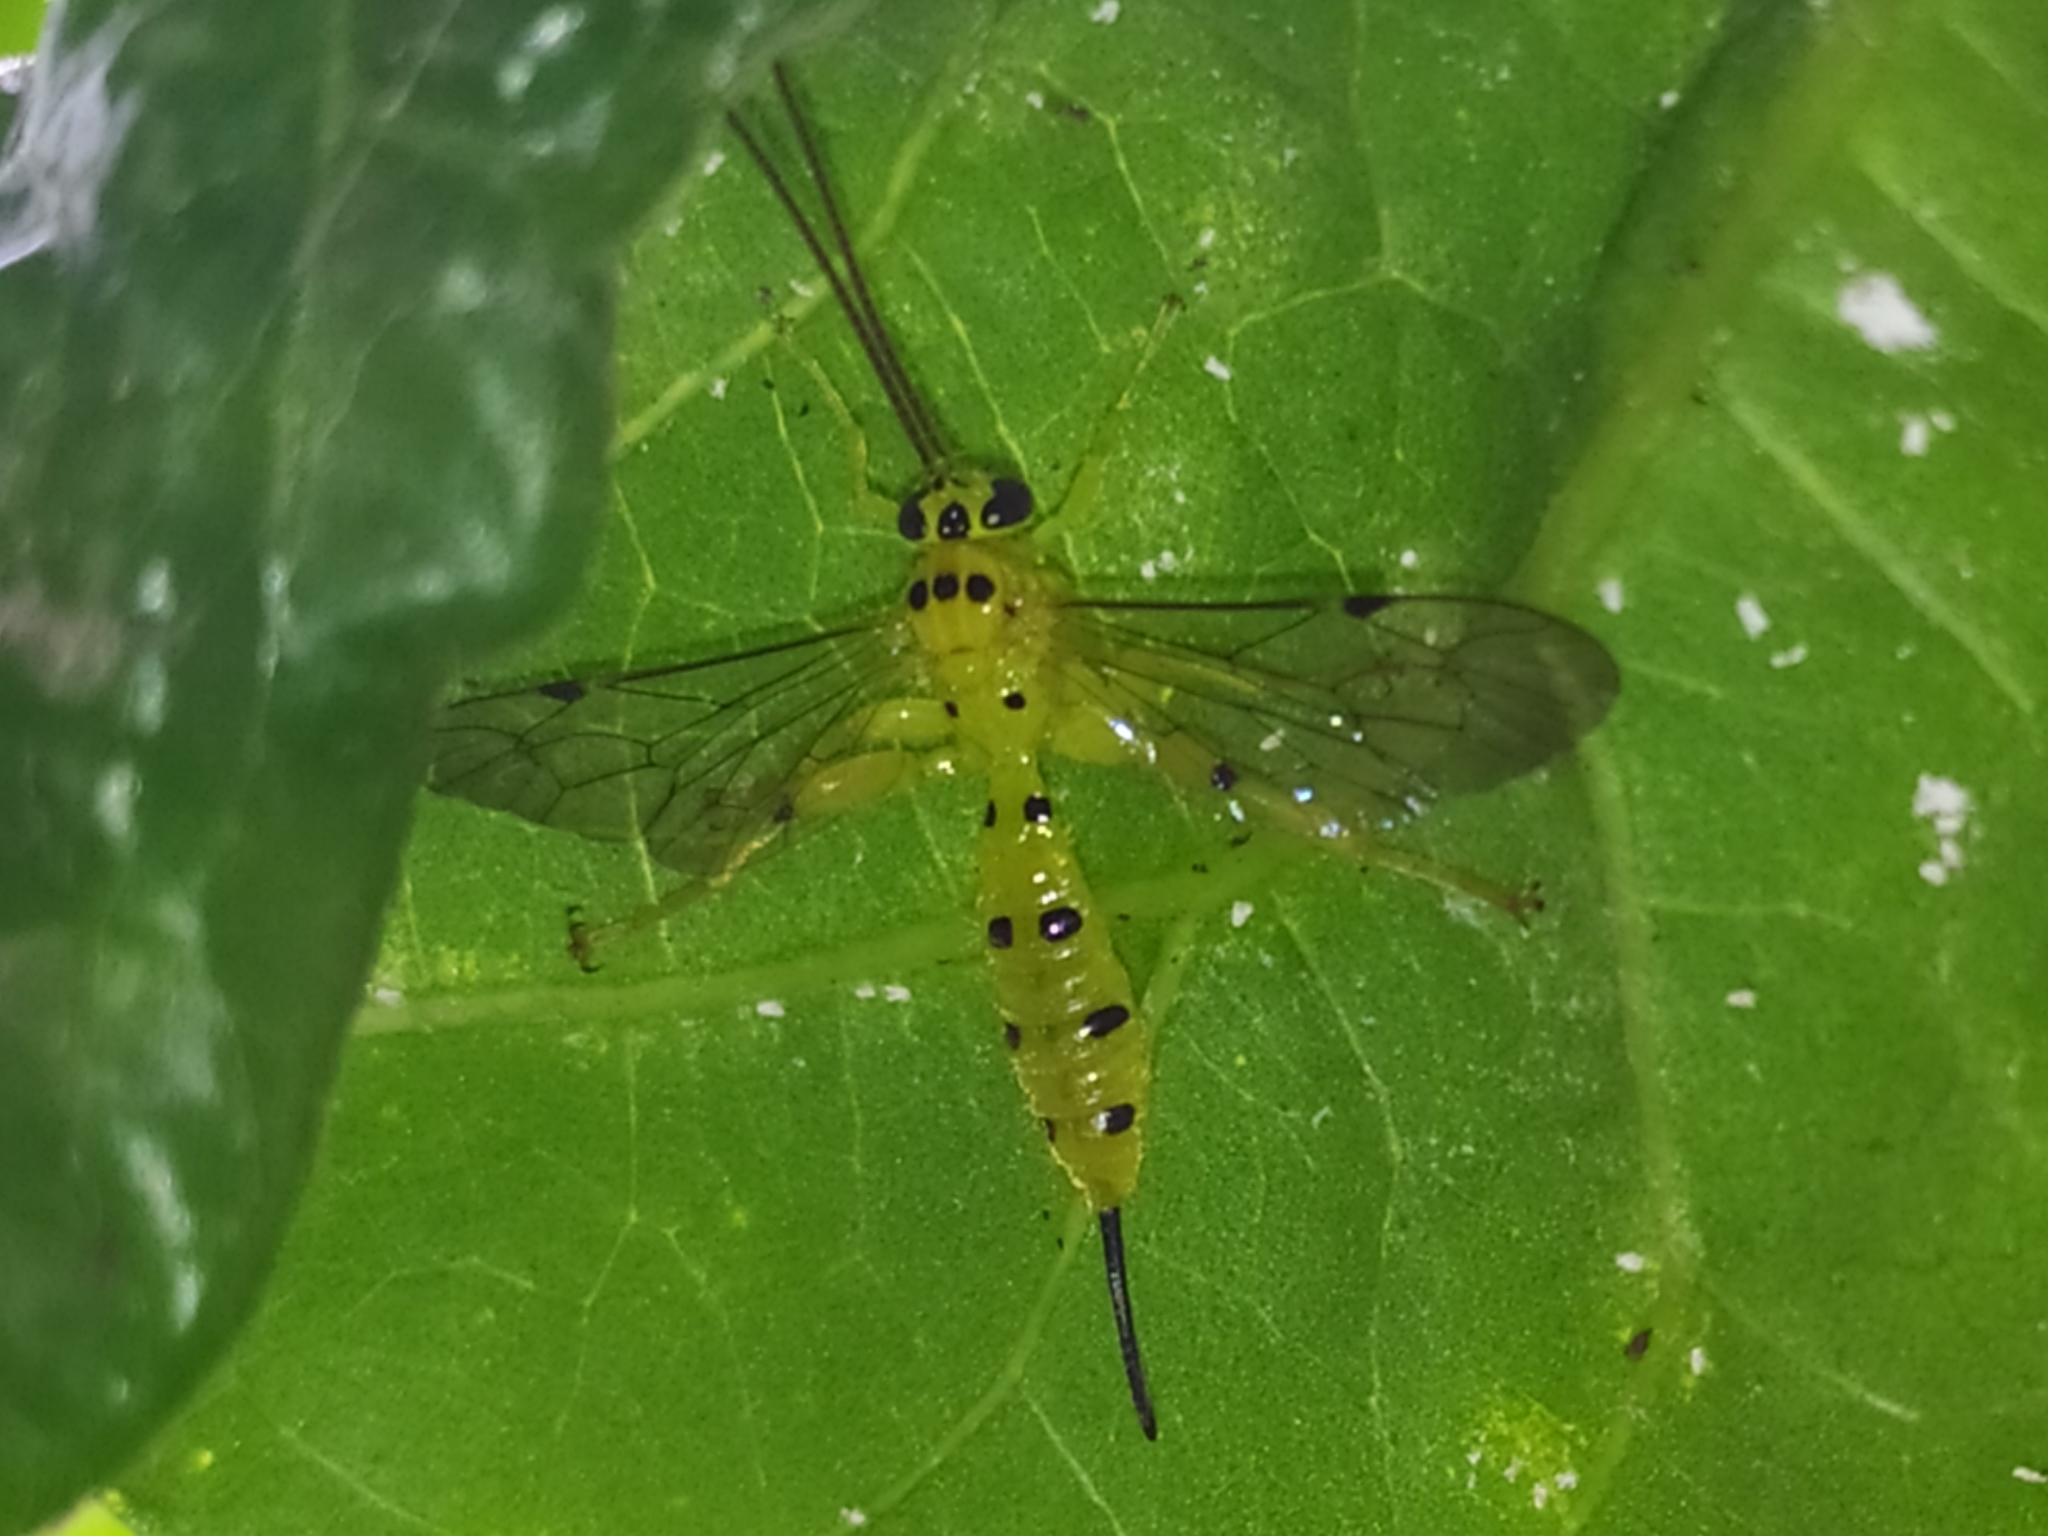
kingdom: Animalia
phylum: Arthropoda
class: Insecta
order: Hymenoptera
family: Ichneumonidae
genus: Xanthopimpla
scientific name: Xanthopimpla punctata
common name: Parasitoid wasp
